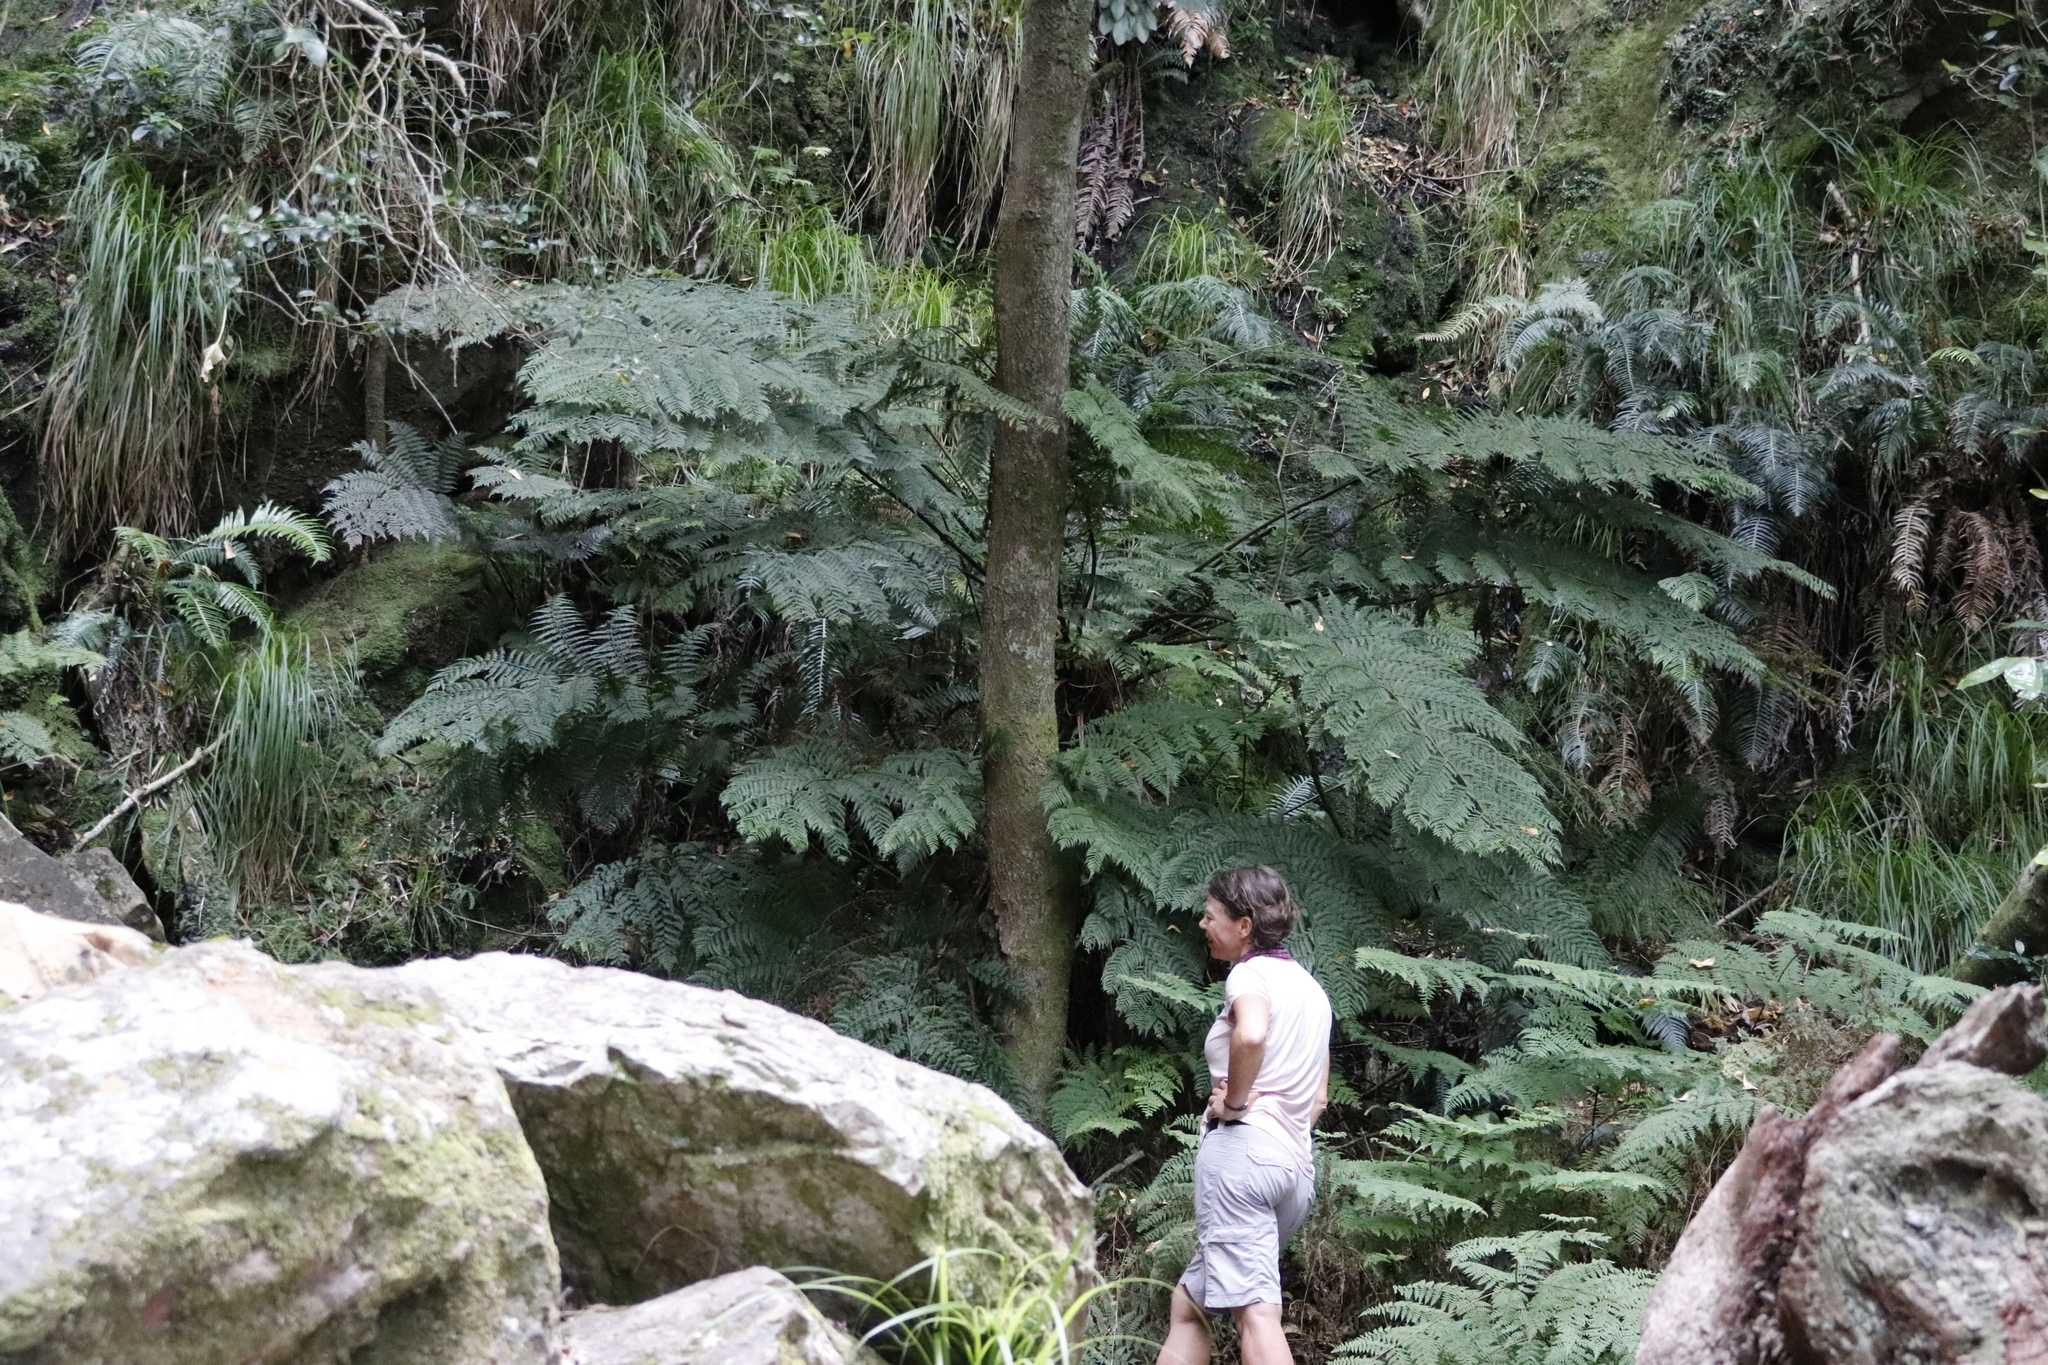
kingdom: Plantae
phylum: Tracheophyta
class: Polypodiopsida
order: Cyatheales
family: Cyatheaceae
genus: Gymnosphaera
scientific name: Gymnosphaera capensis
